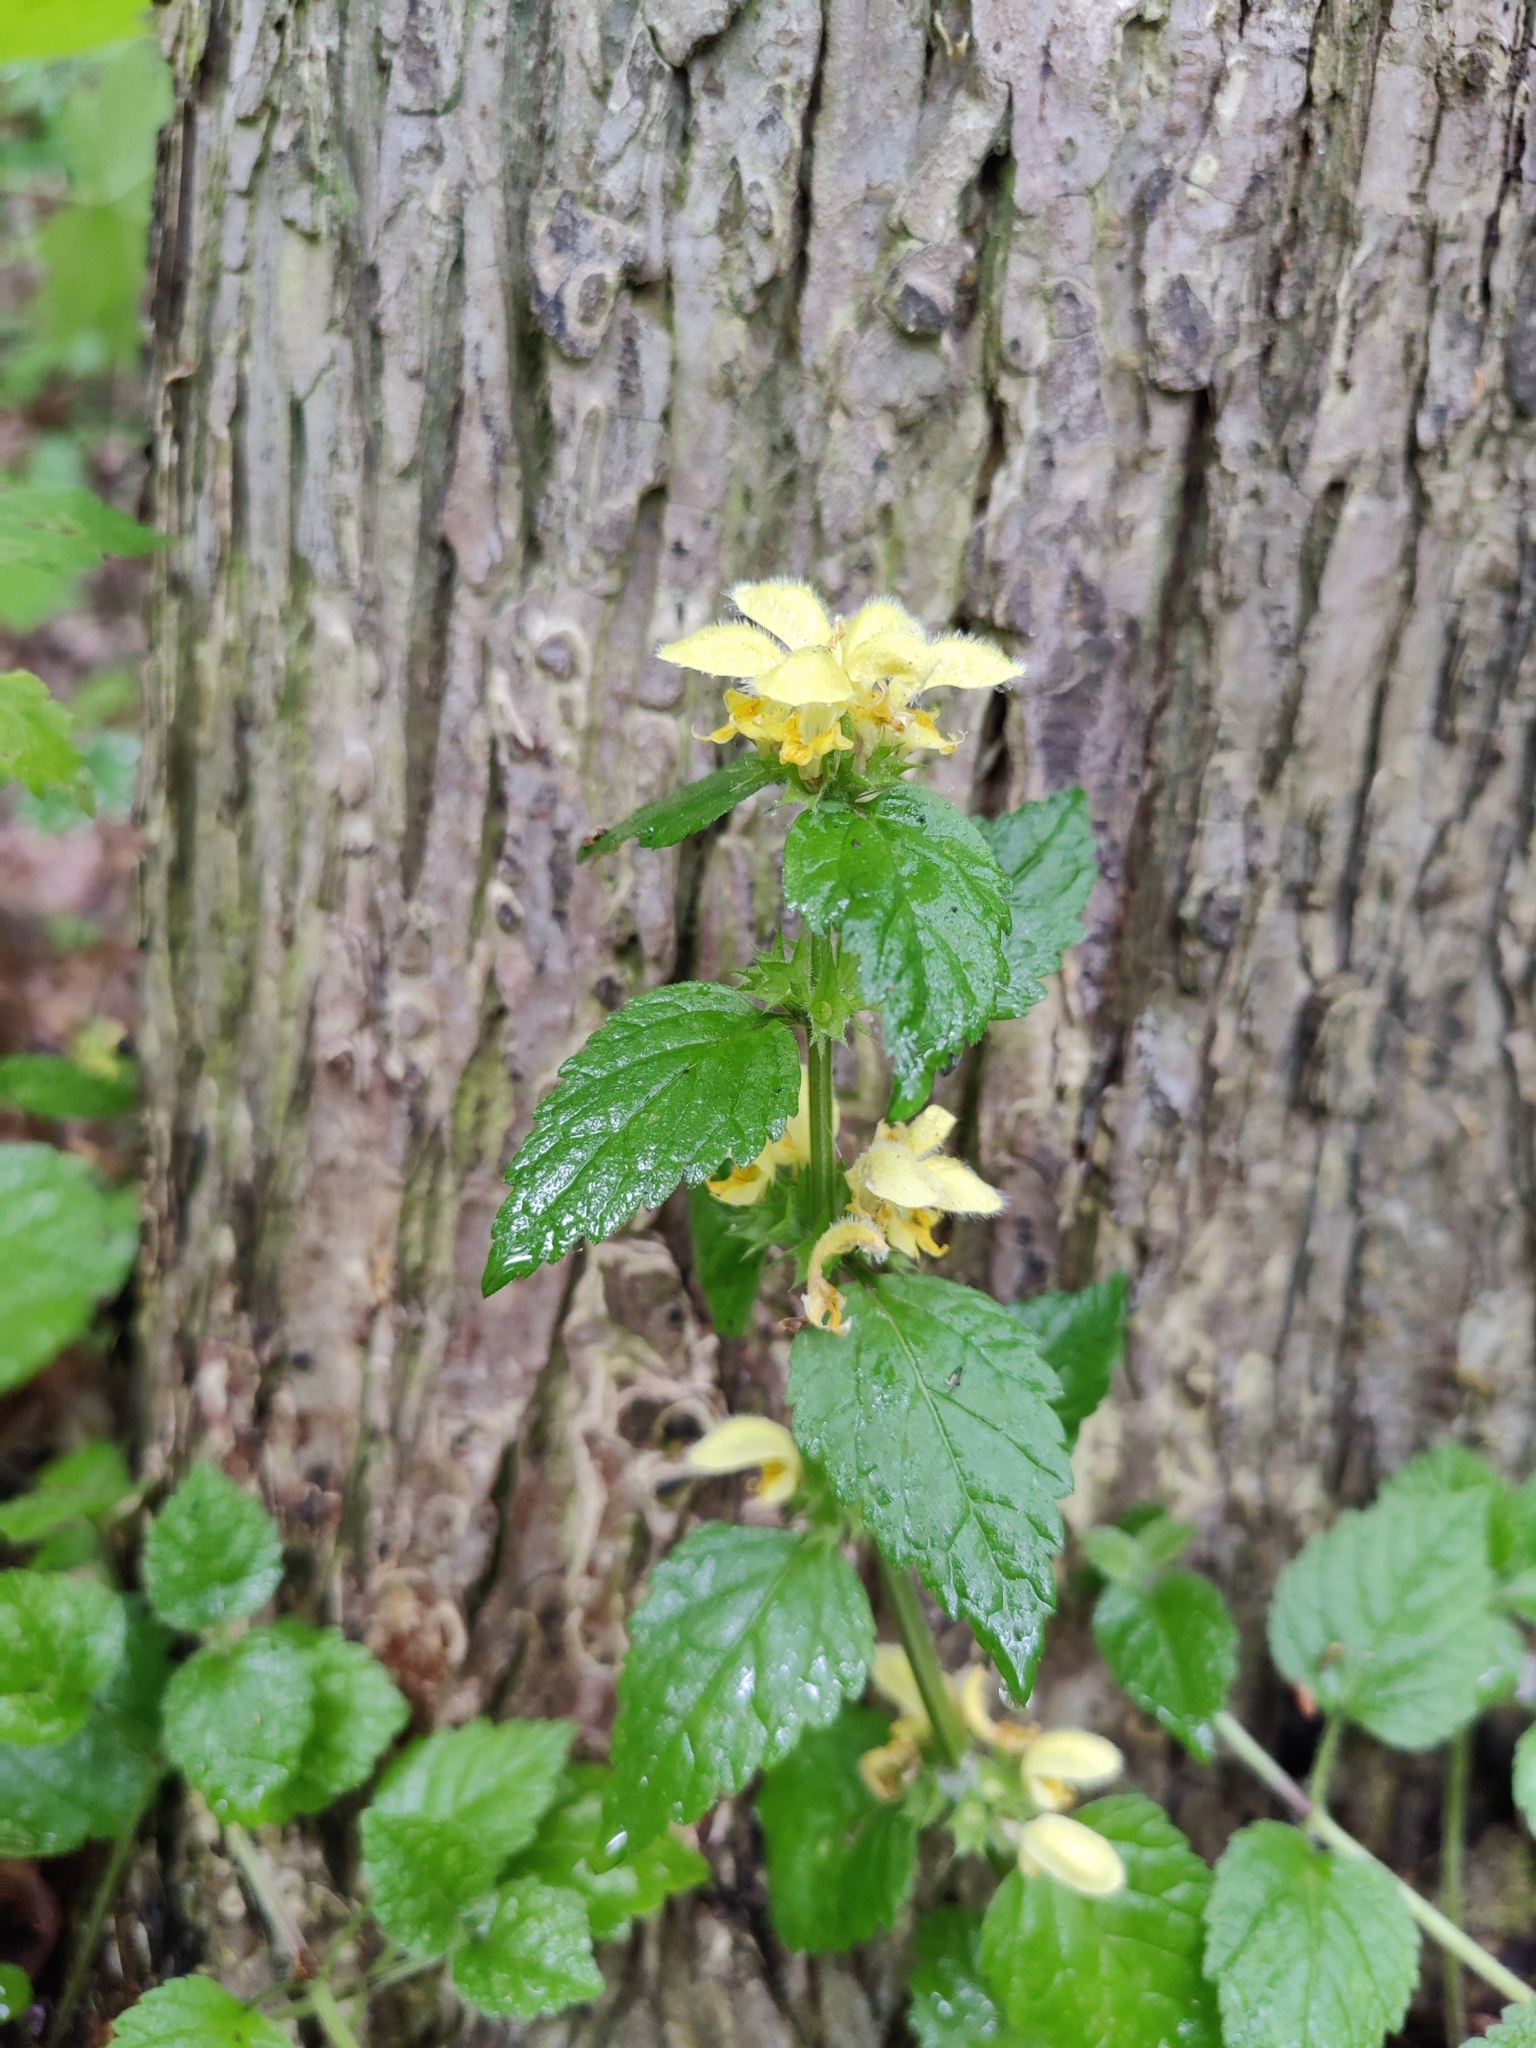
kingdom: Plantae
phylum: Tracheophyta
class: Magnoliopsida
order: Lamiales
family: Lamiaceae
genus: Lamium
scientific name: Lamium galeobdolon
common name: Yellow archangel
